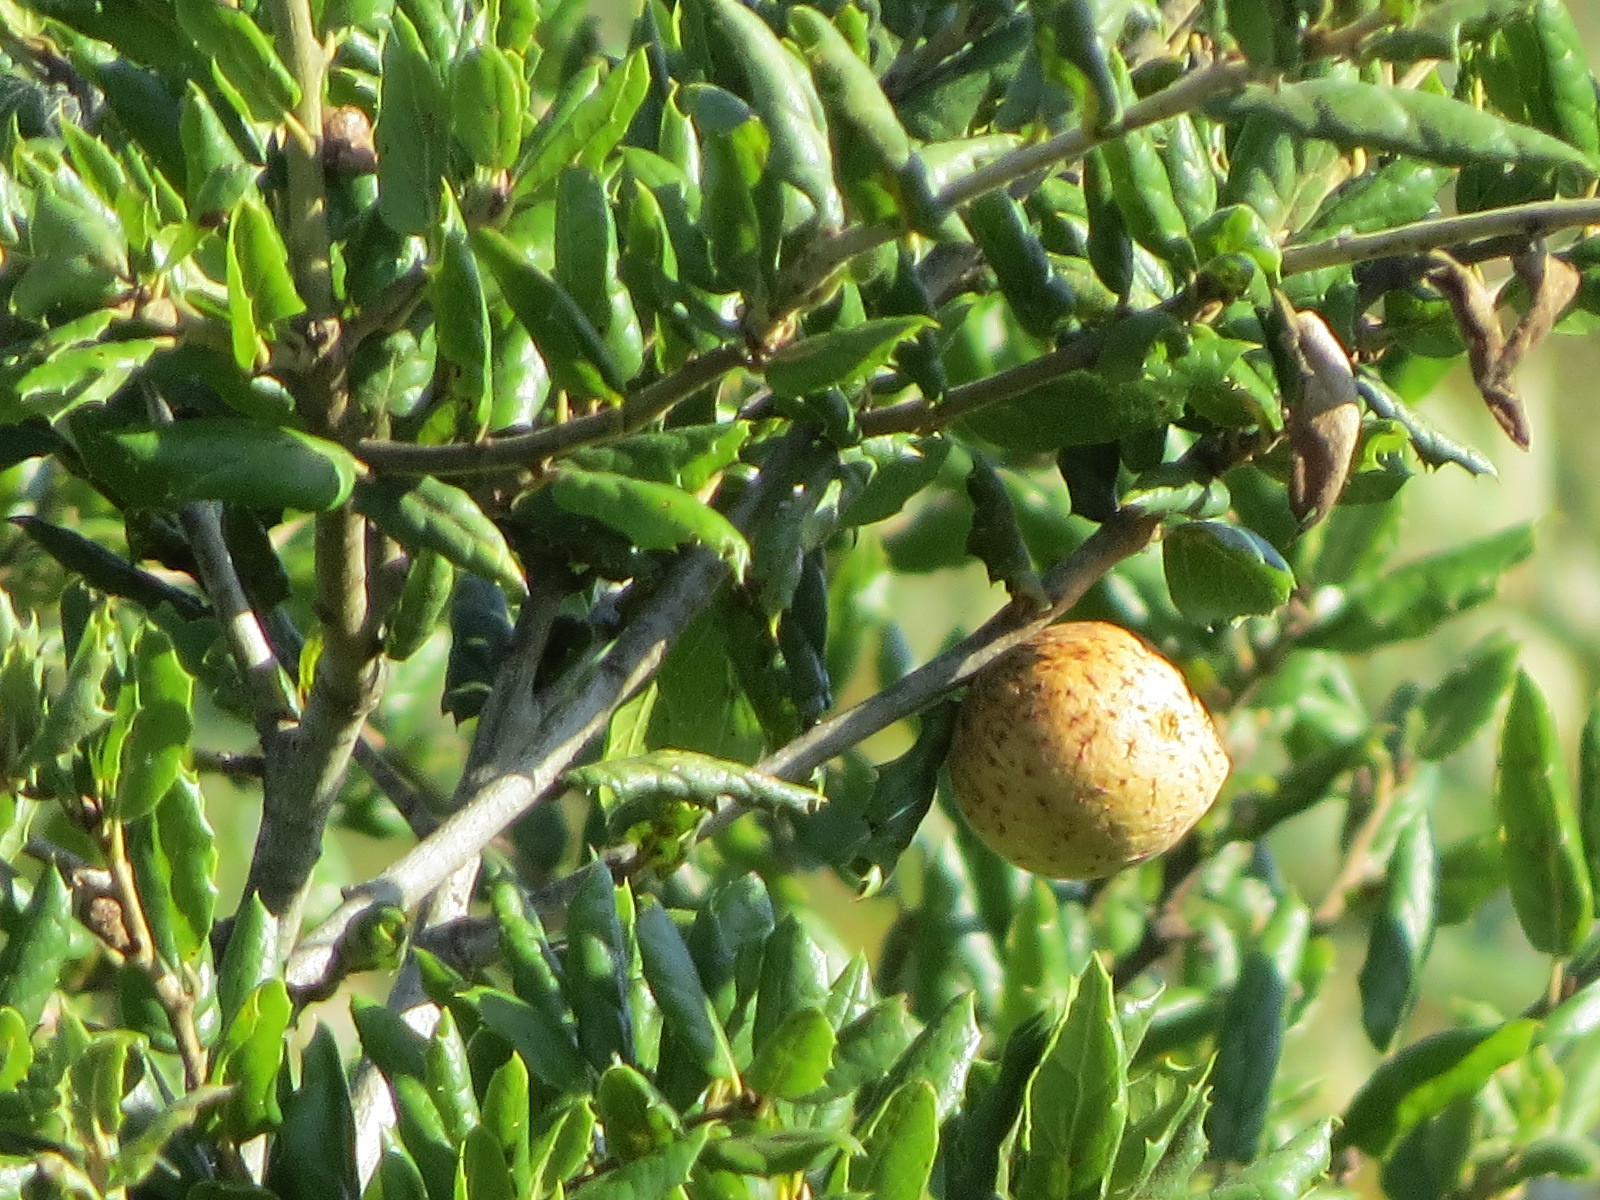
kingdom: Animalia
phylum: Arthropoda
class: Insecta
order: Hymenoptera
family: Cynipidae
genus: Amphibolips
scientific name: Amphibolips quercuspomiformis
